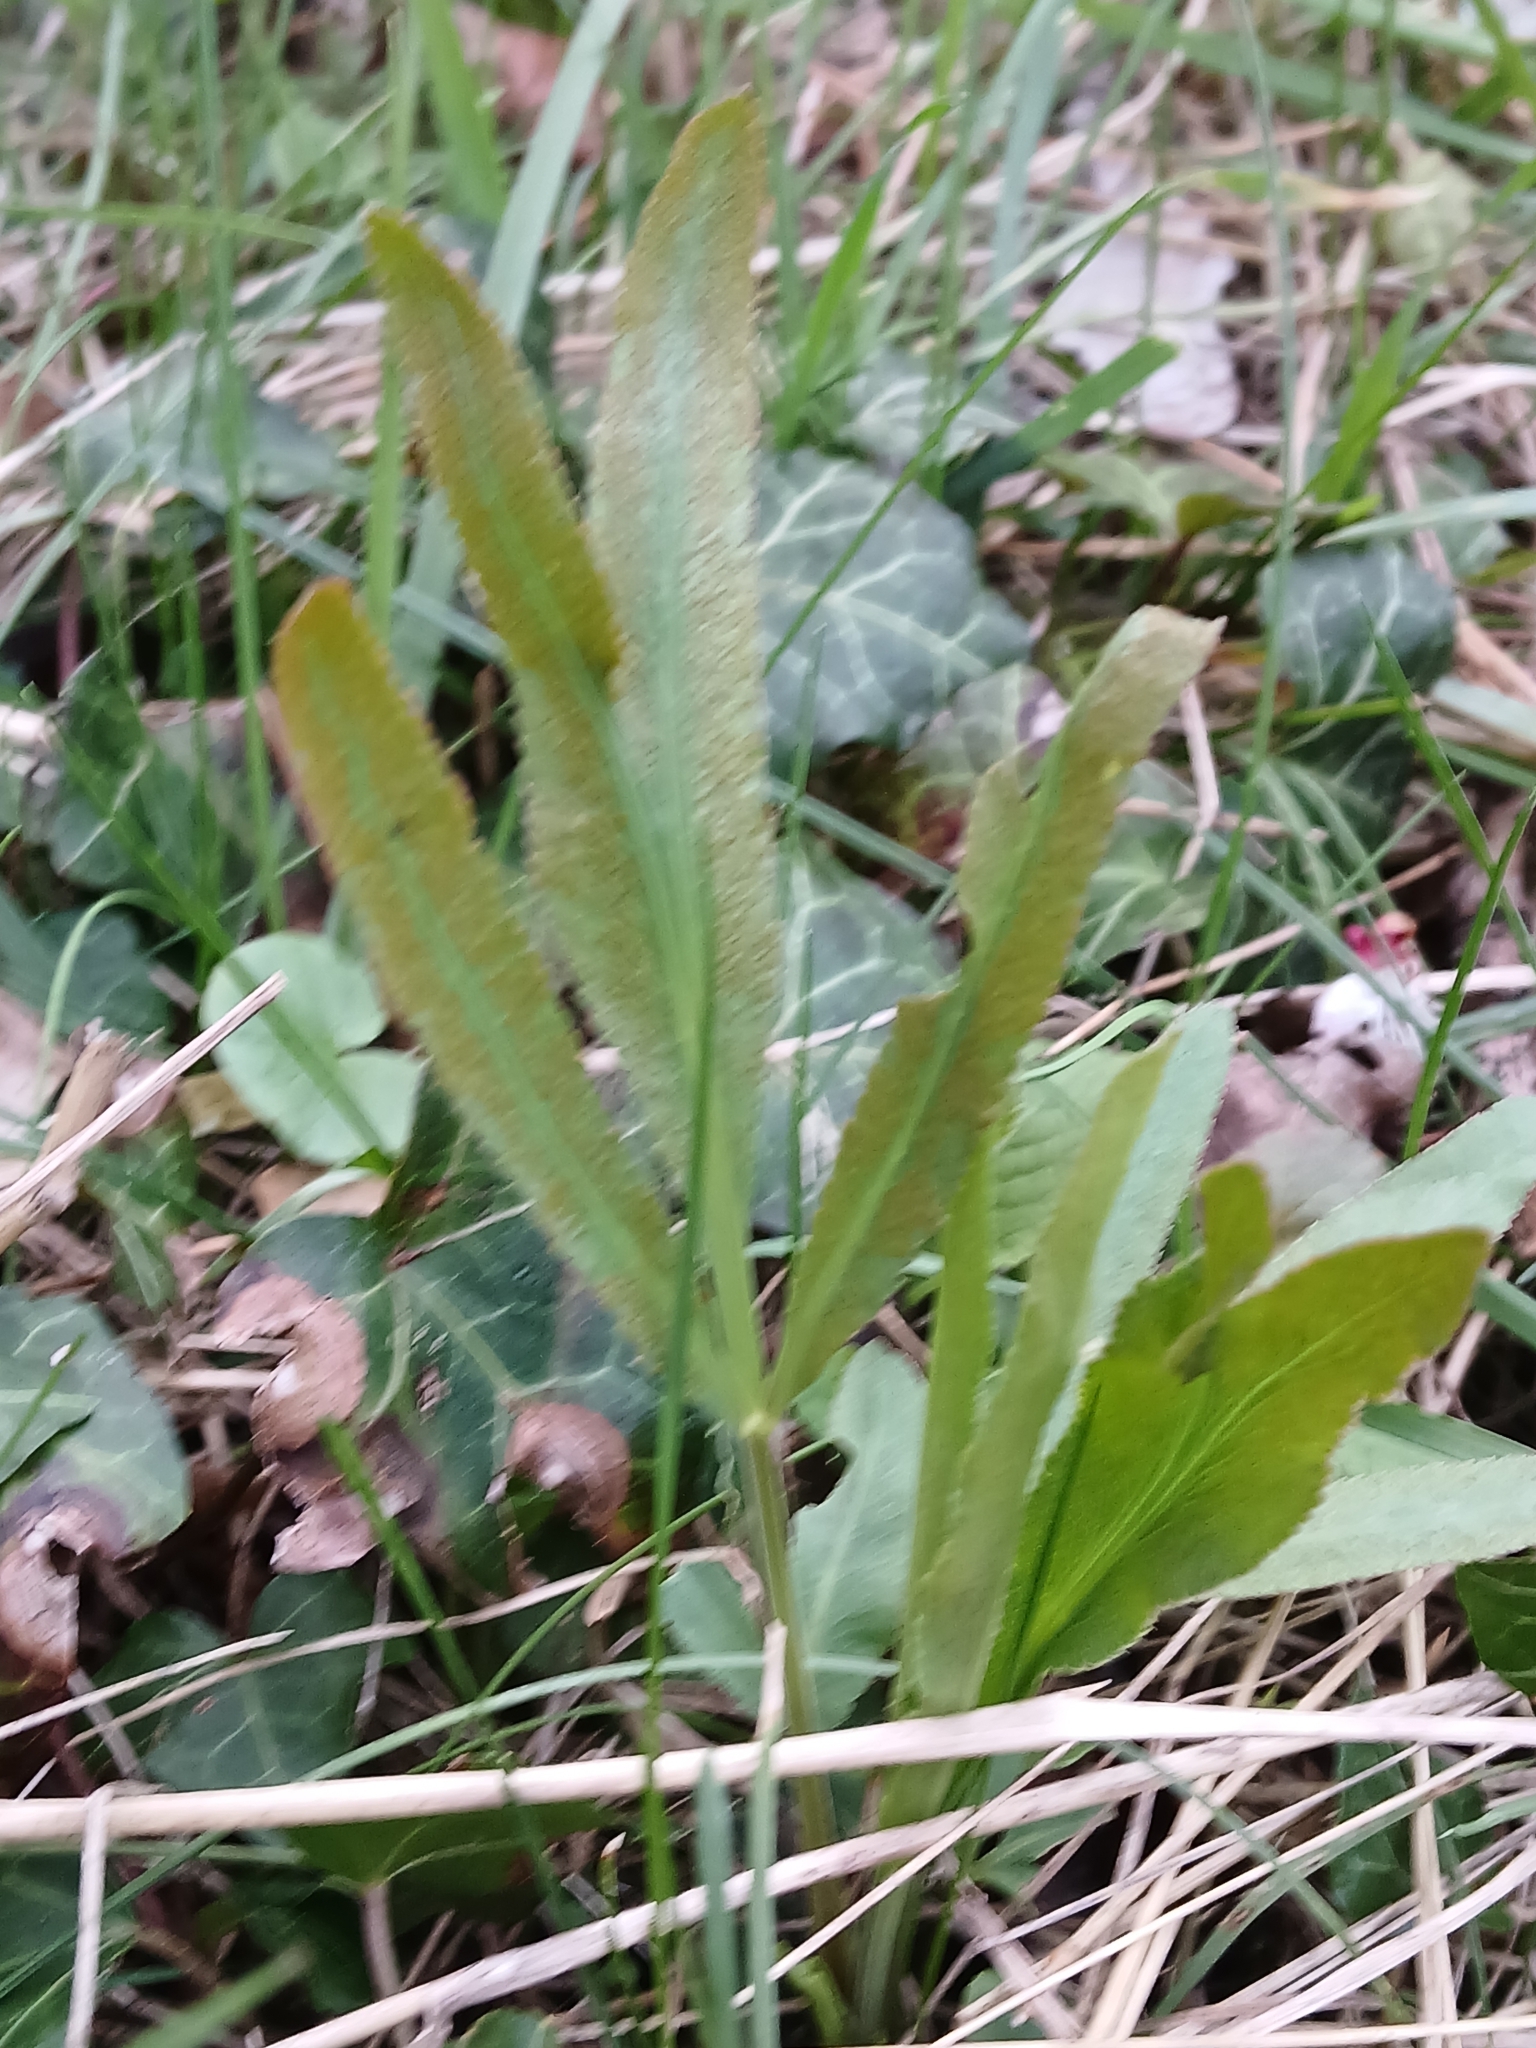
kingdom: Plantae
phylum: Tracheophyta
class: Magnoliopsida
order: Apiales
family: Apiaceae
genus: Falcaria
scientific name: Falcaria vulgaris
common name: Longleaf
